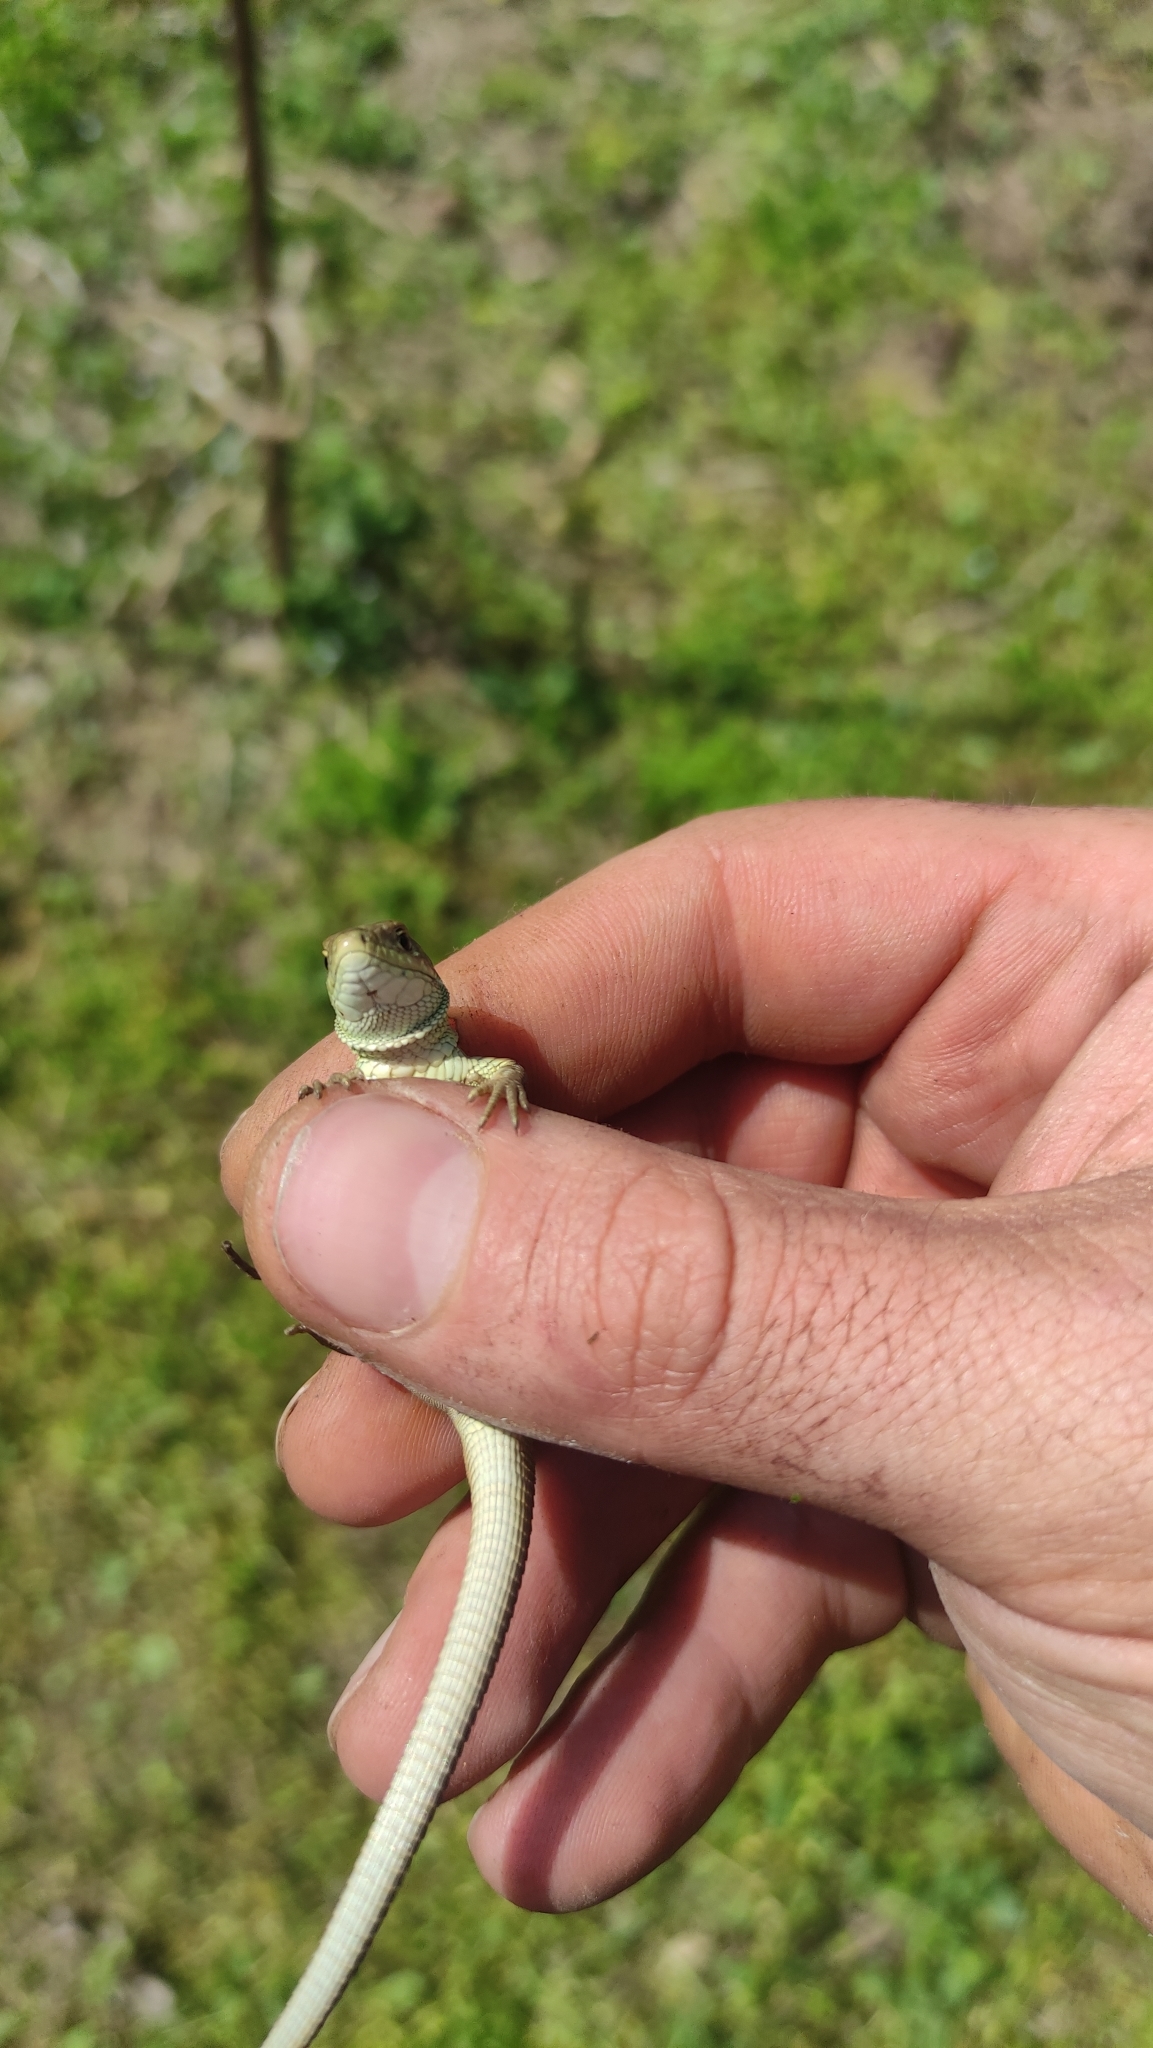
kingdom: Animalia
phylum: Chordata
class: Squamata
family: Lacertidae
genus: Lacerta
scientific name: Lacerta viridis
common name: European green lizard
